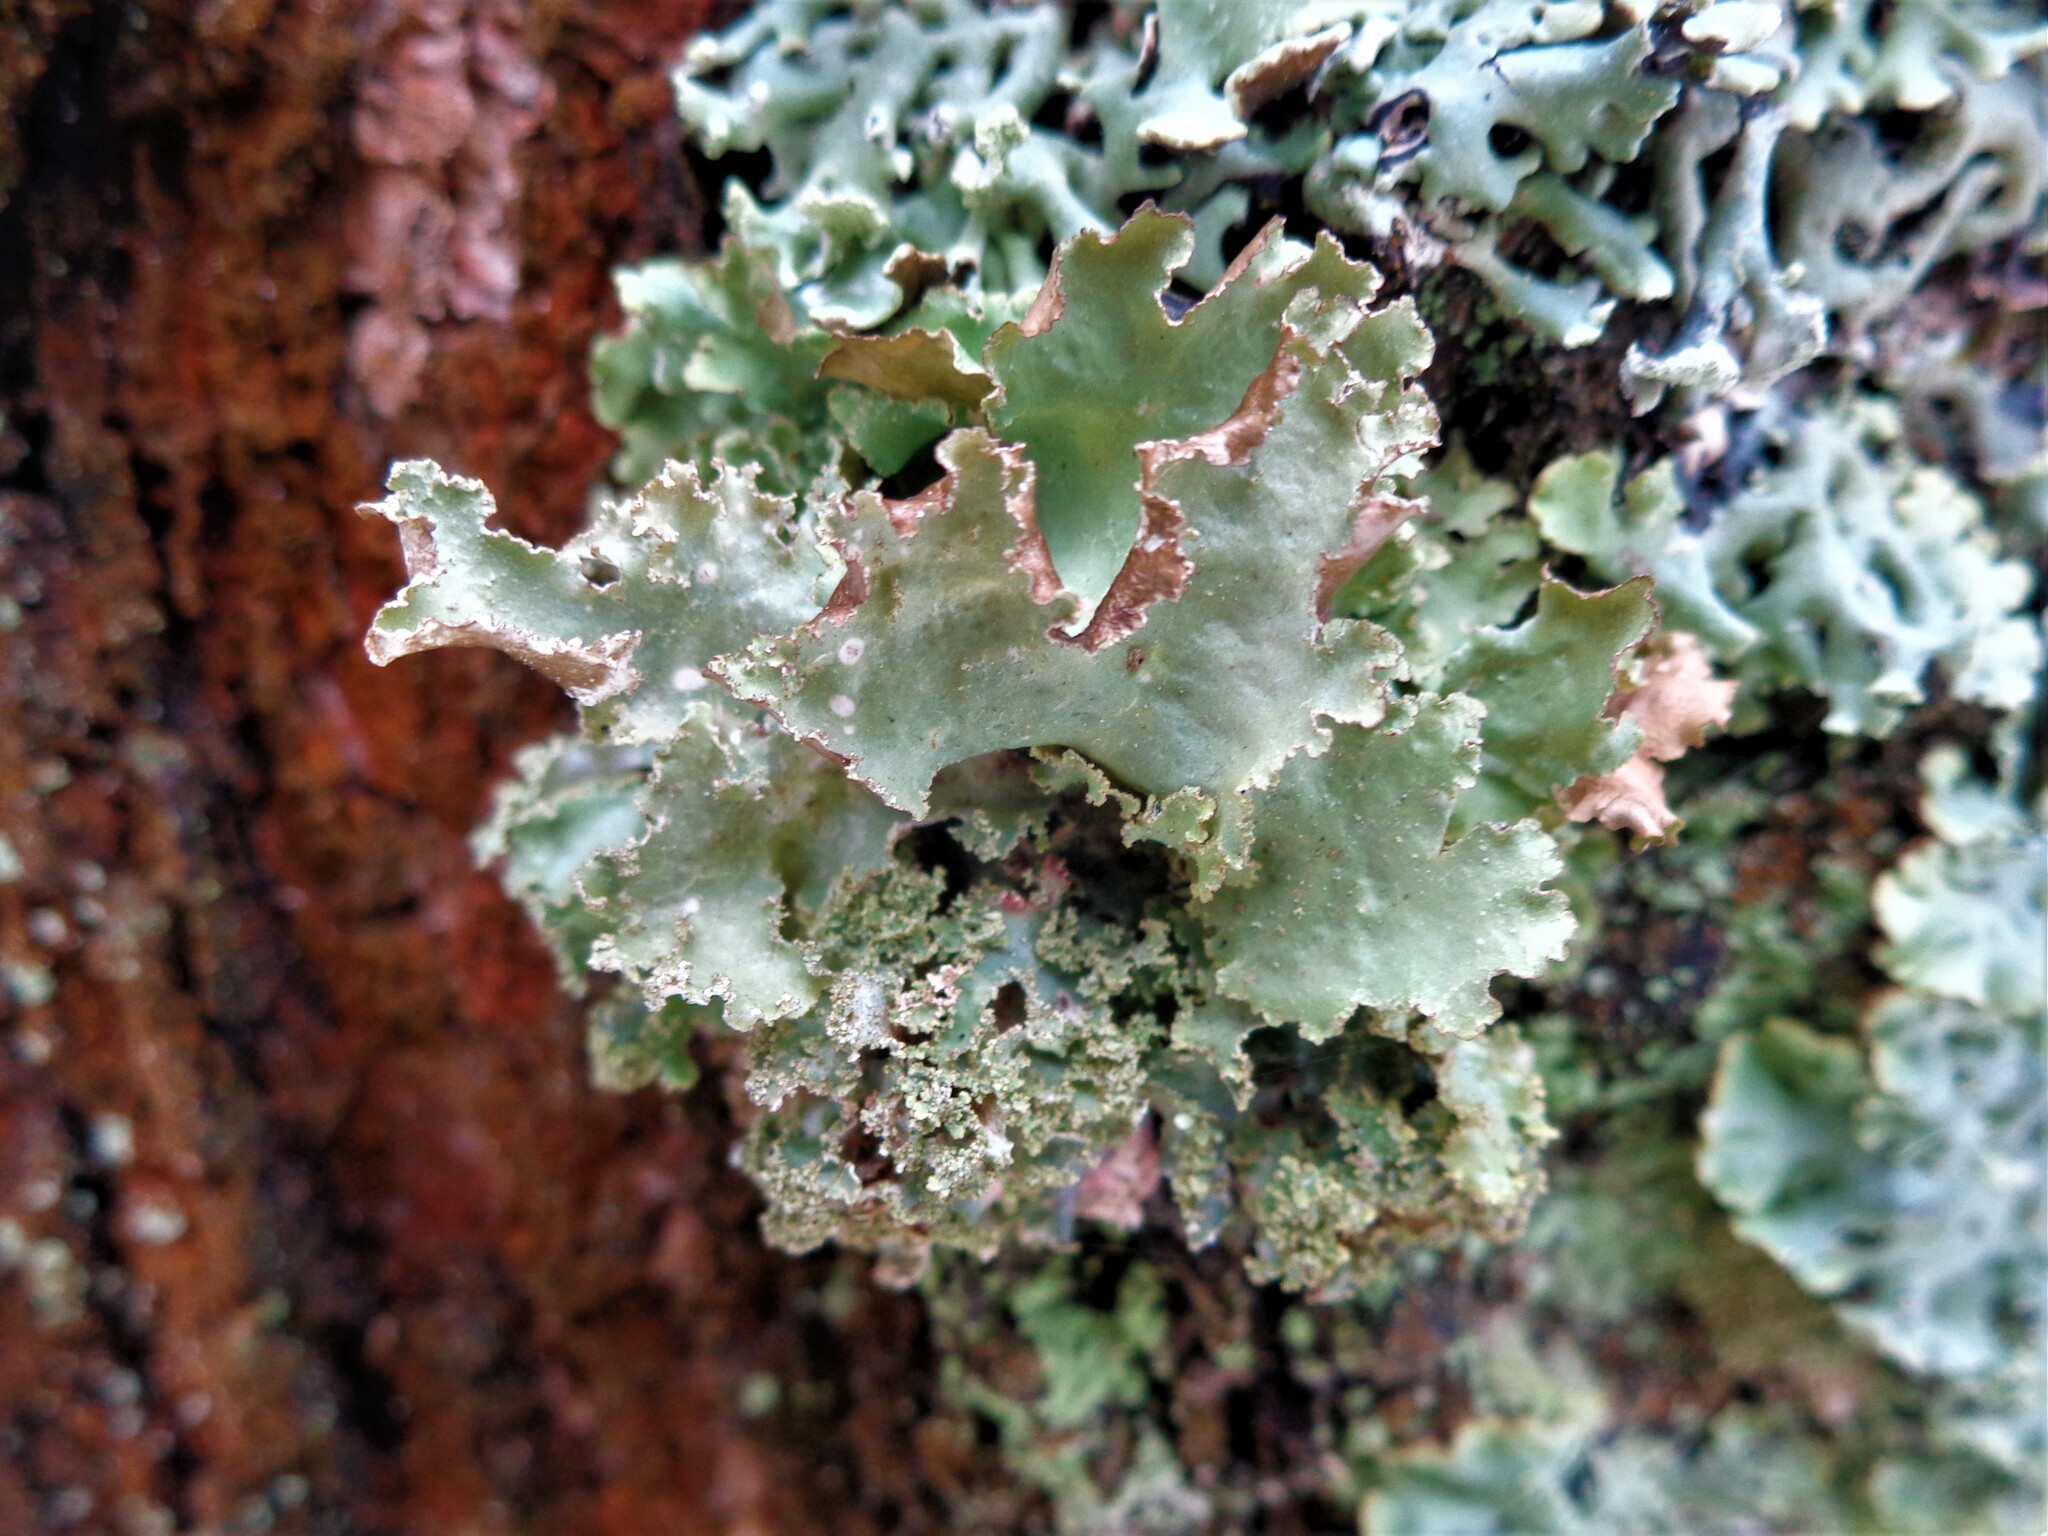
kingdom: Fungi
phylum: Ascomycota
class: Lecanoromycetes
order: Lecanorales
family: Parmeliaceae
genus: Platismatia
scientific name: Platismatia glauca
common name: Varied rag lichen
